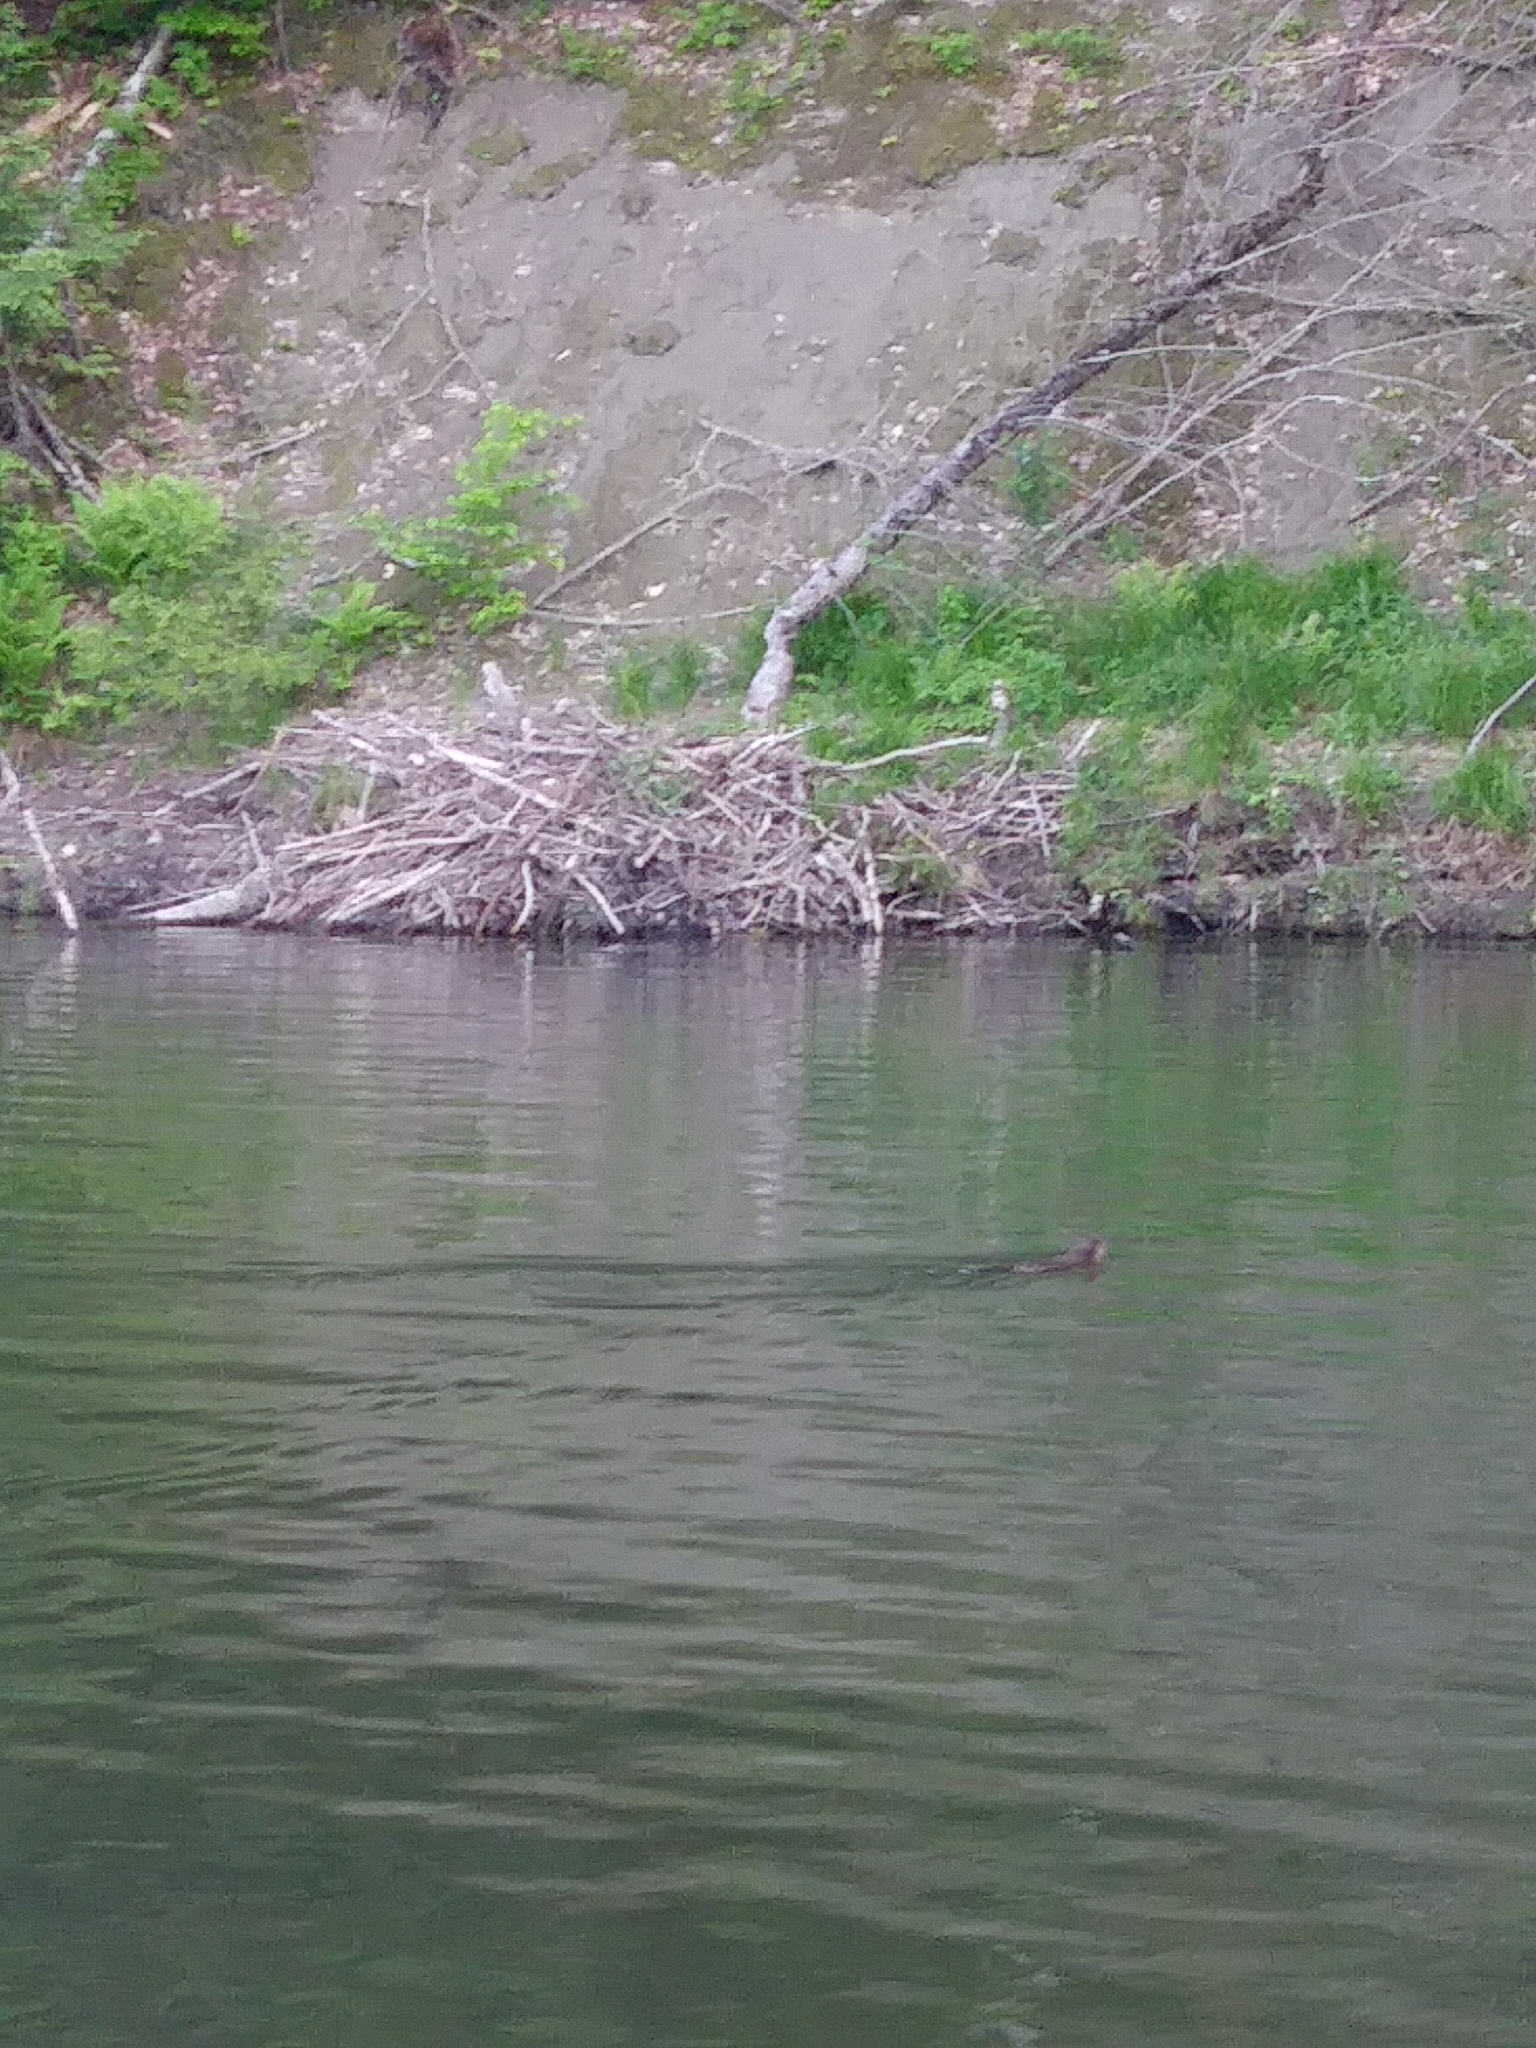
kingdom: Animalia
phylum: Chordata
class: Mammalia
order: Rodentia
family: Castoridae
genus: Castor
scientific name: Castor canadensis
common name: American beaver
